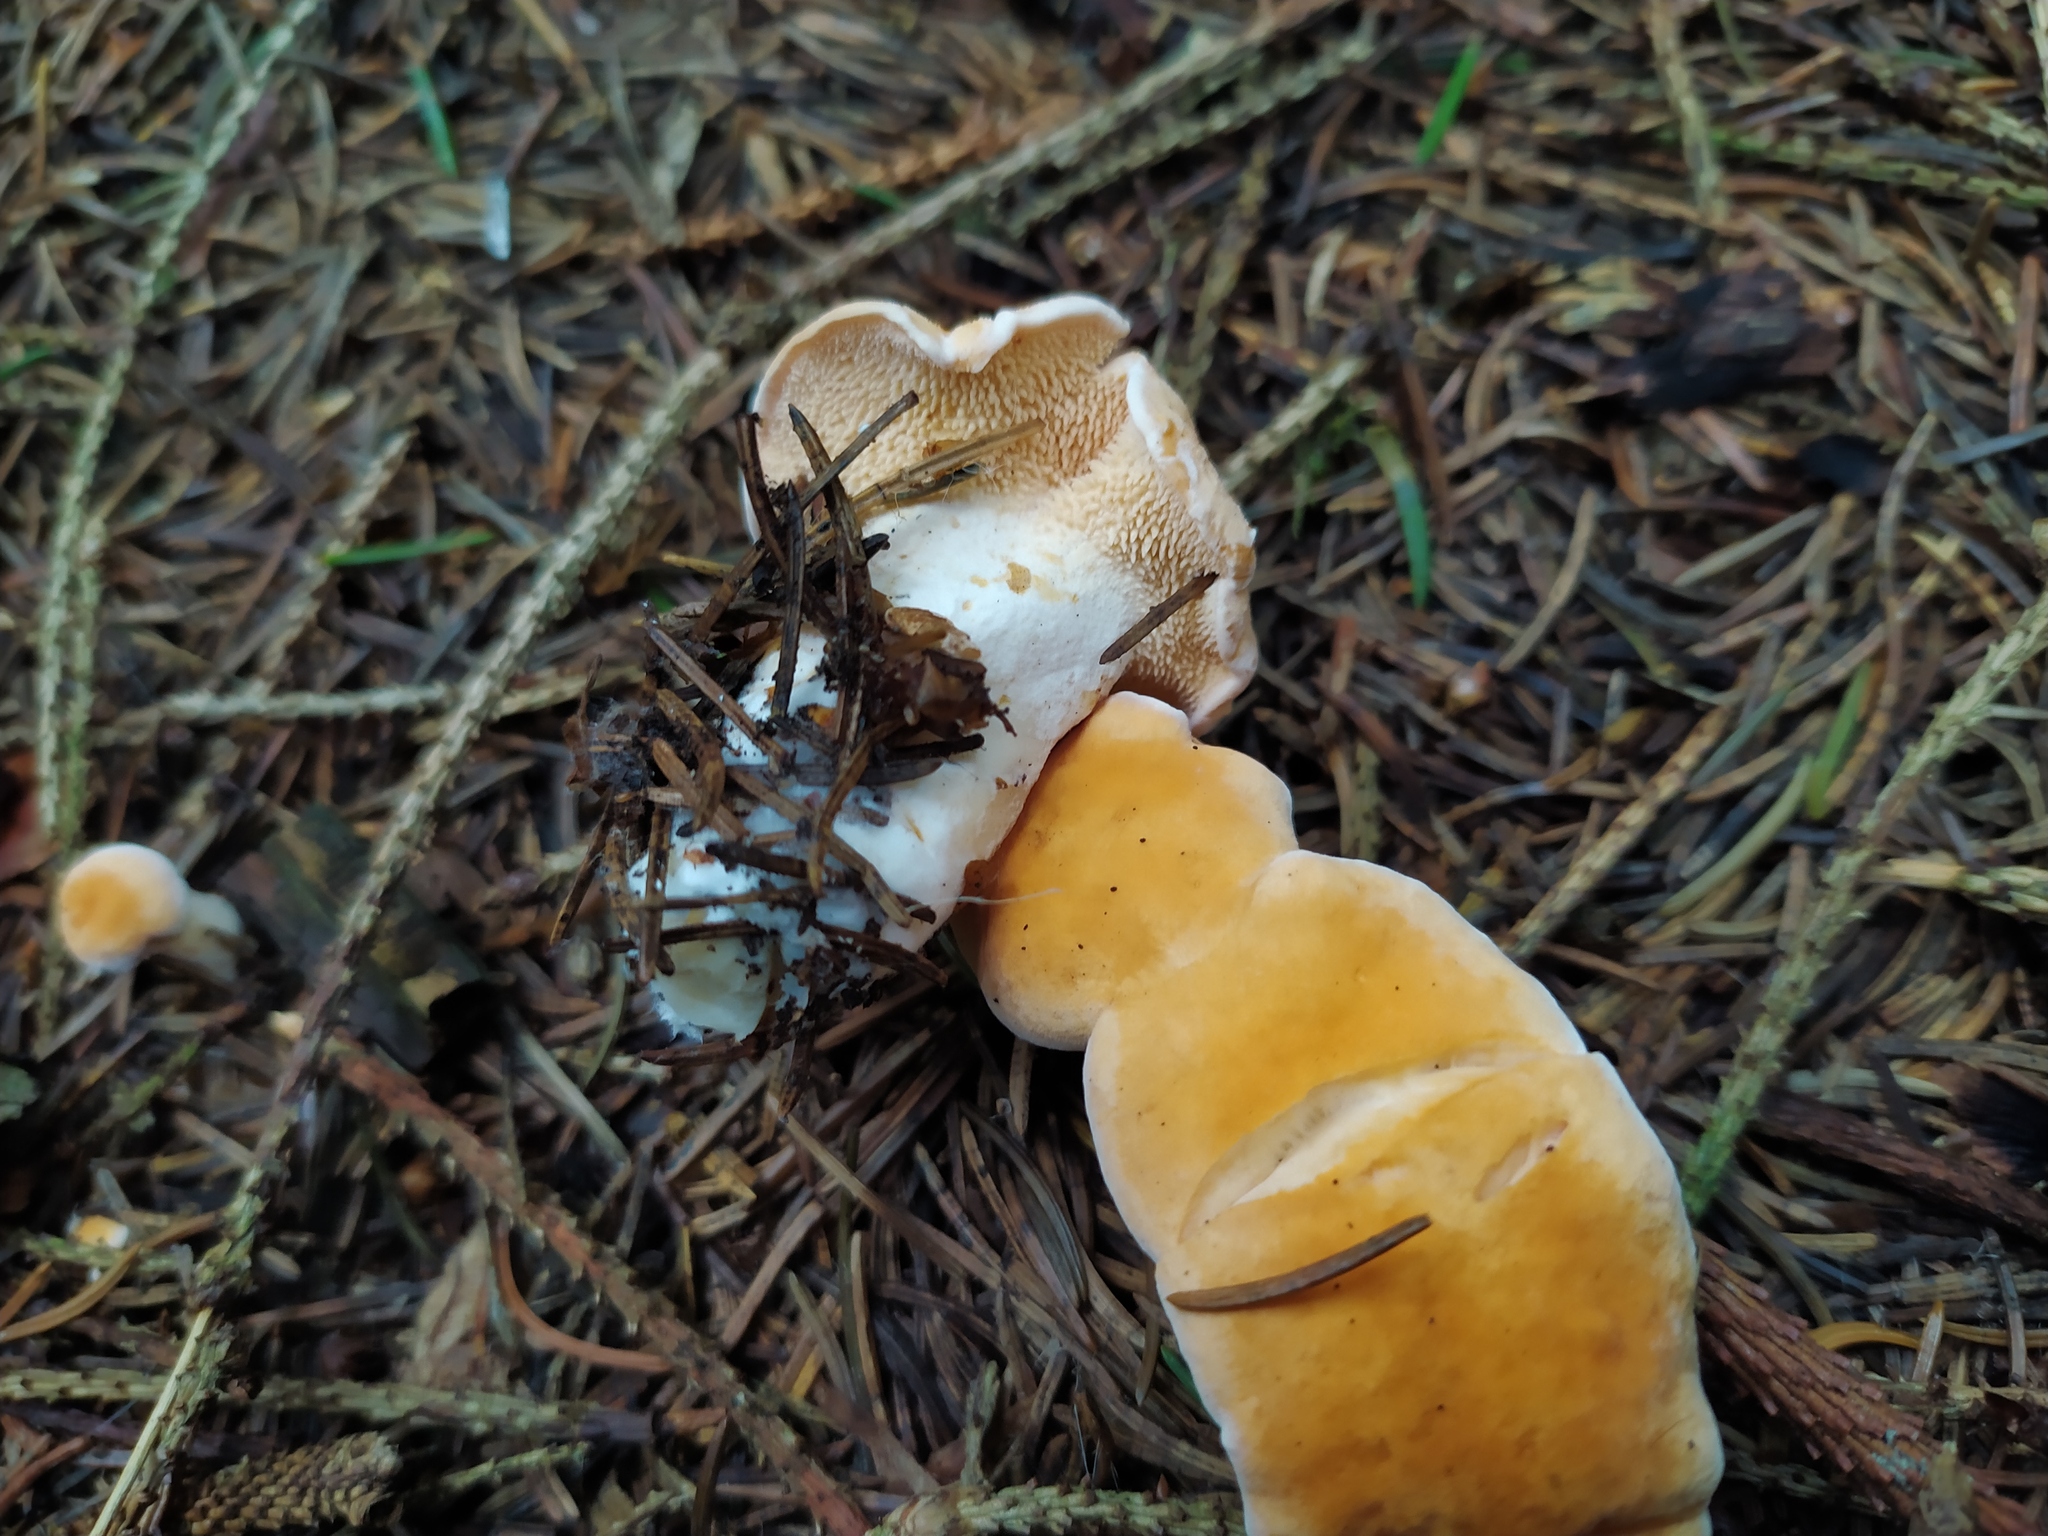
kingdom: Fungi
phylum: Basidiomycota
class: Agaricomycetes
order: Cantharellales
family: Hydnaceae
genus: Hydnum
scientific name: Hydnum repandum
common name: Wood hedgehog
